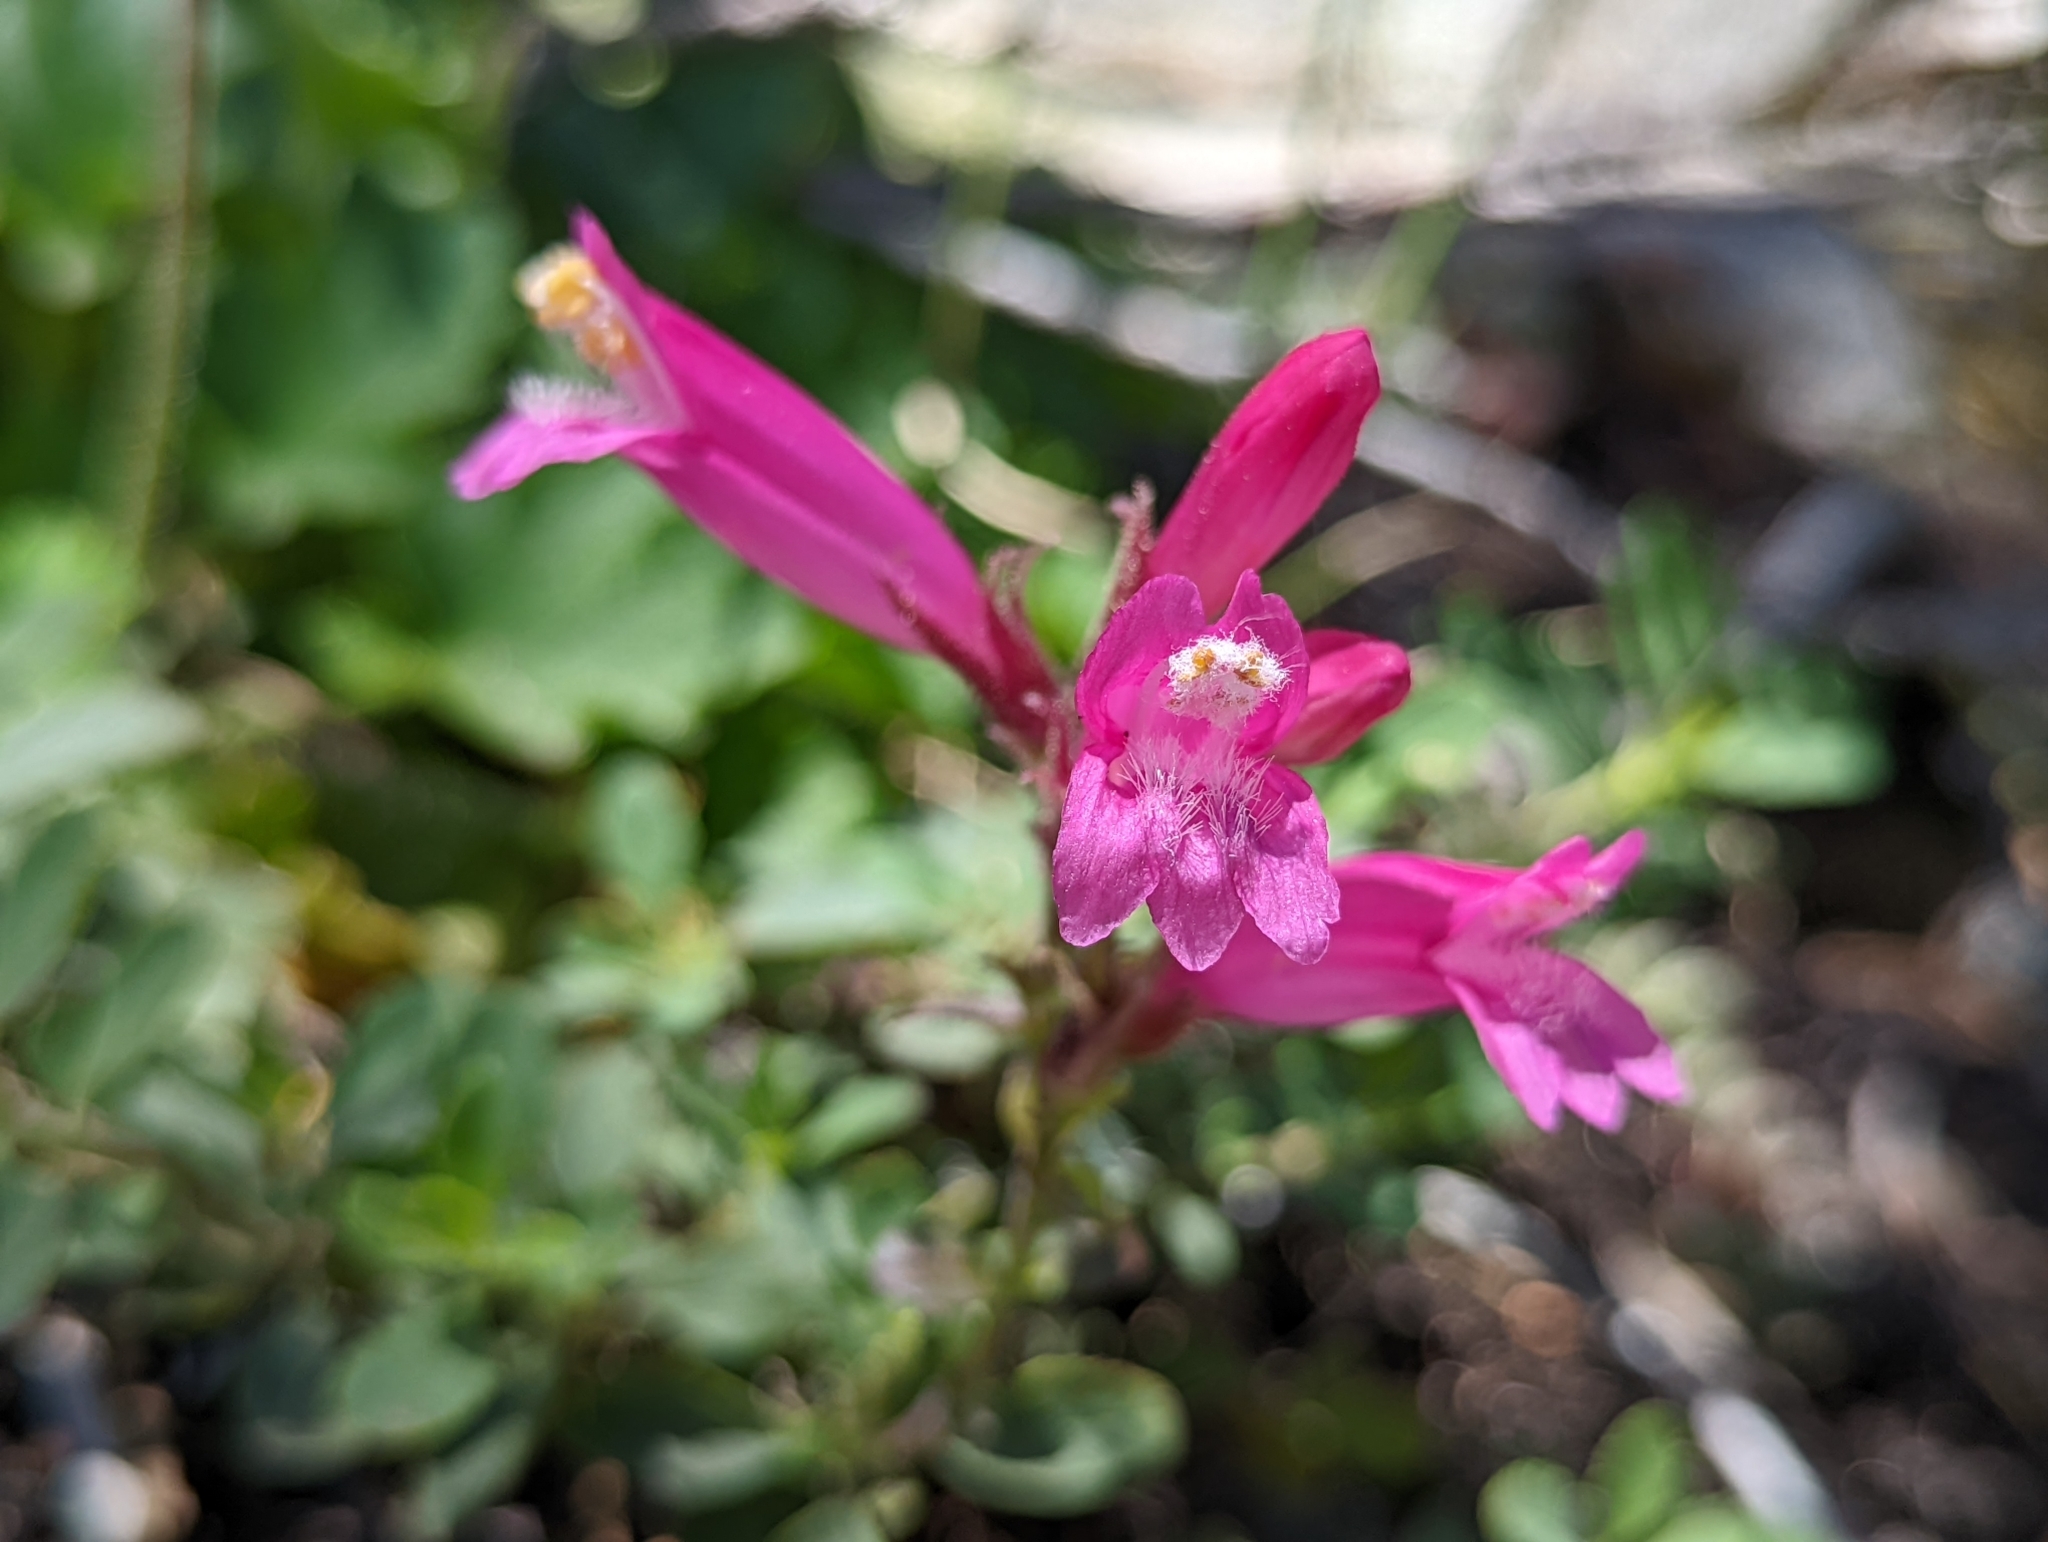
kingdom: Plantae
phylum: Tracheophyta
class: Magnoliopsida
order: Lamiales
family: Plantaginaceae
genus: Penstemon
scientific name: Penstemon newberryi
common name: Mountain-pride
